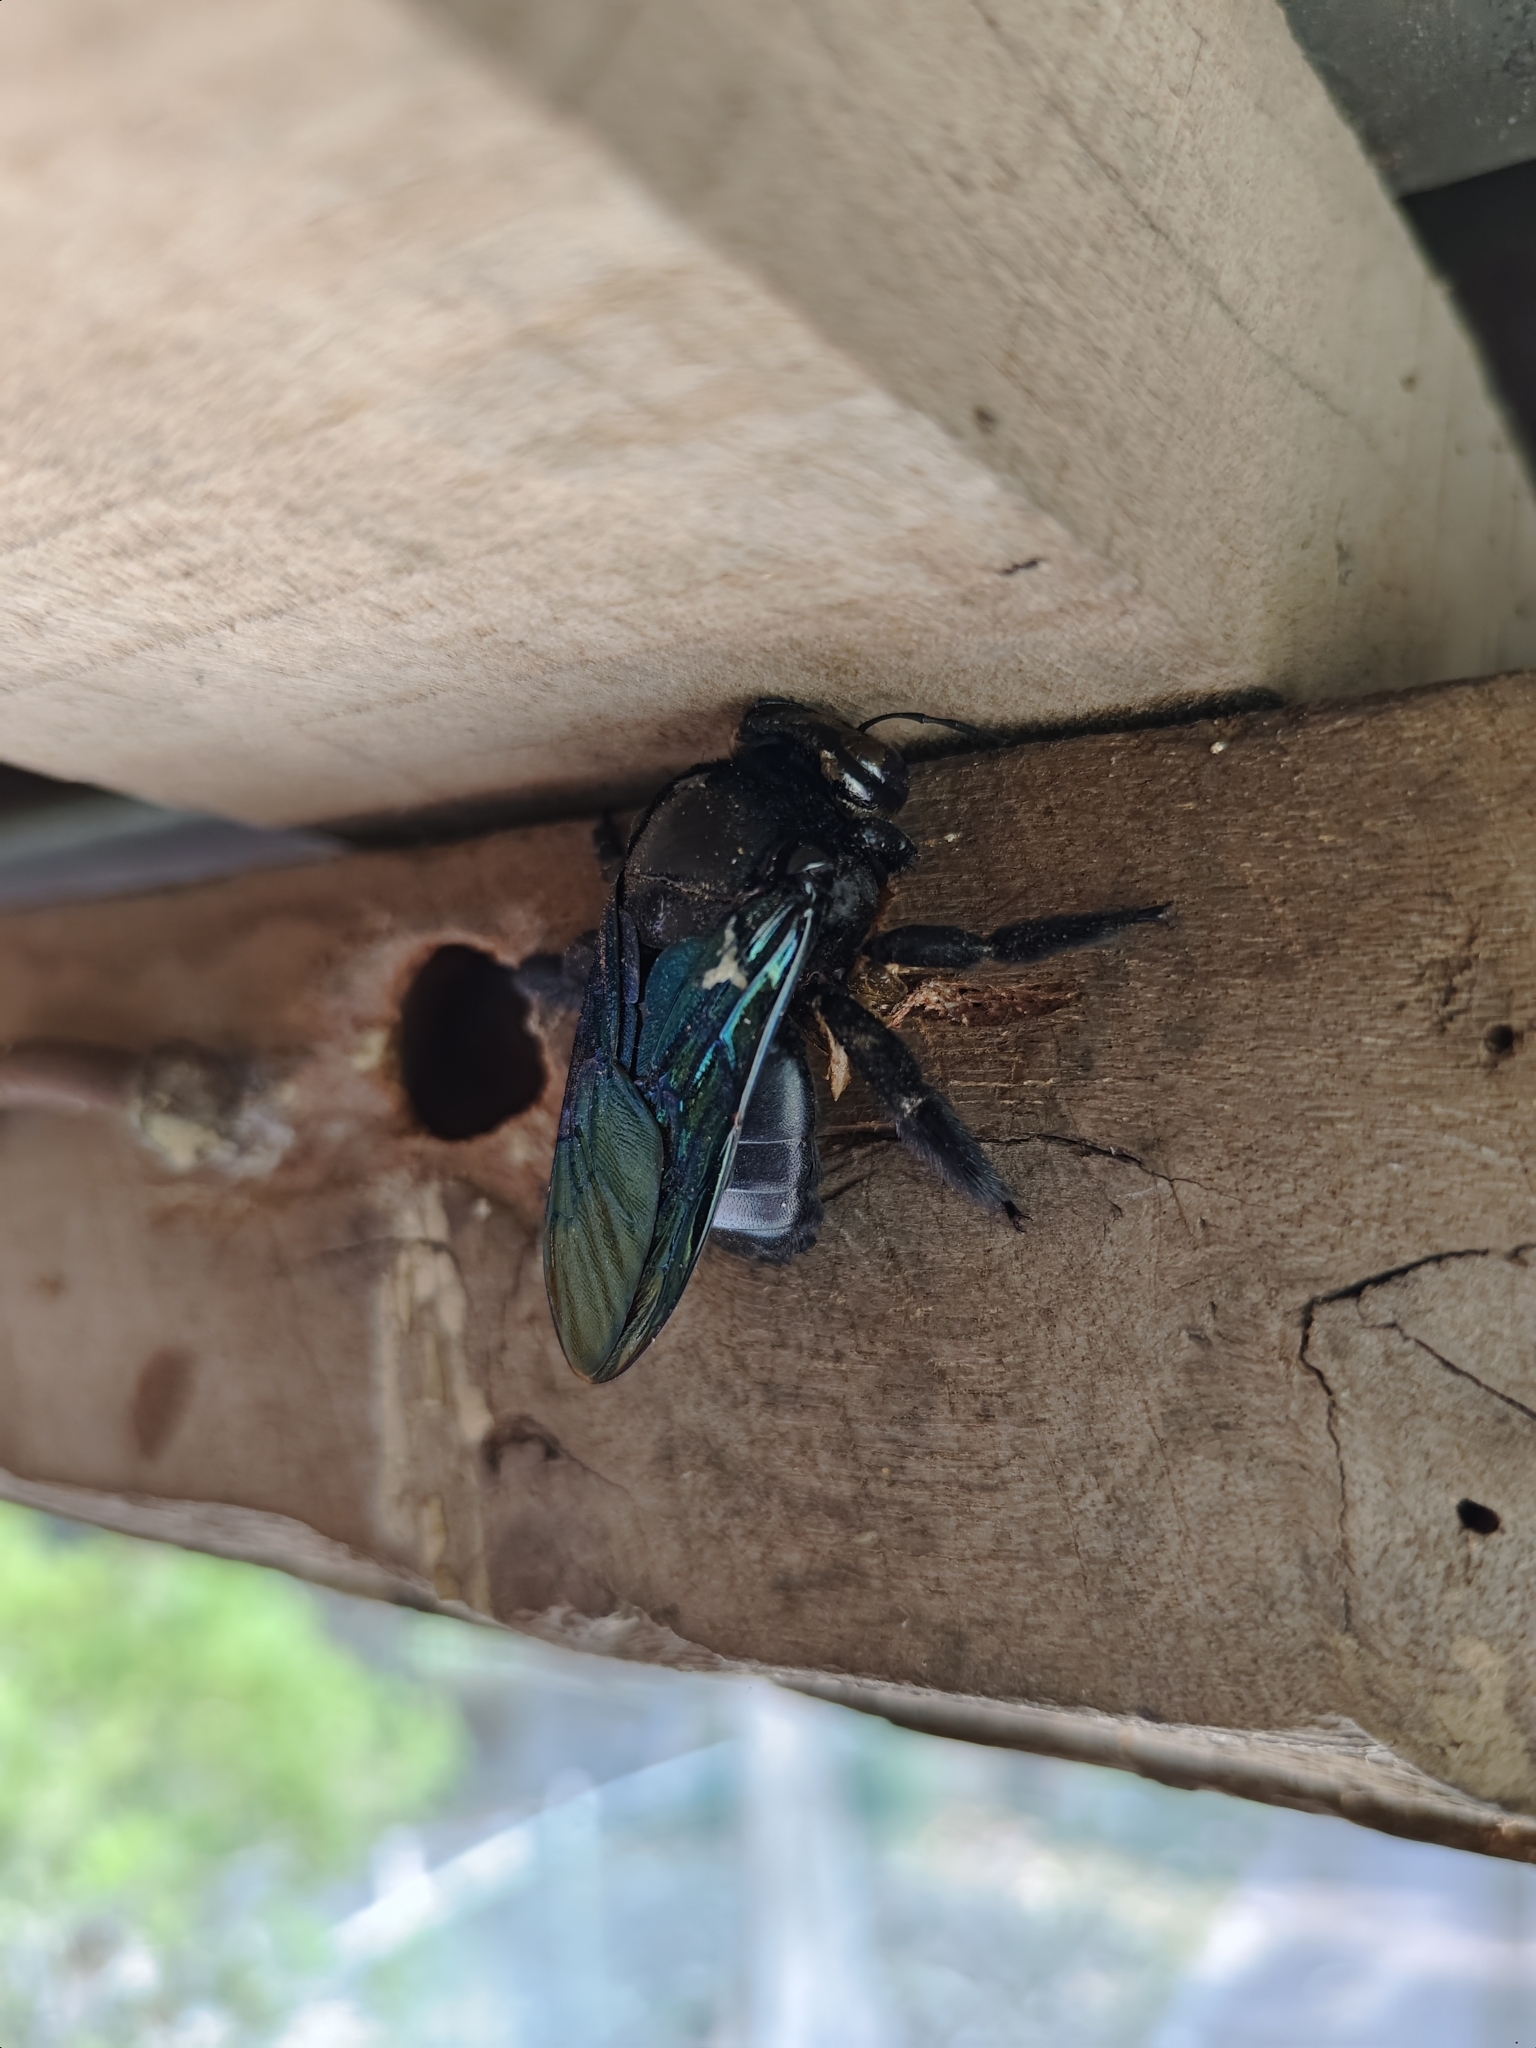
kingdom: Animalia
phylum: Arthropoda
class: Insecta
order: Hymenoptera
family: Apidae
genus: Xylocopa
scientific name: Xylocopa tenuiscapa
